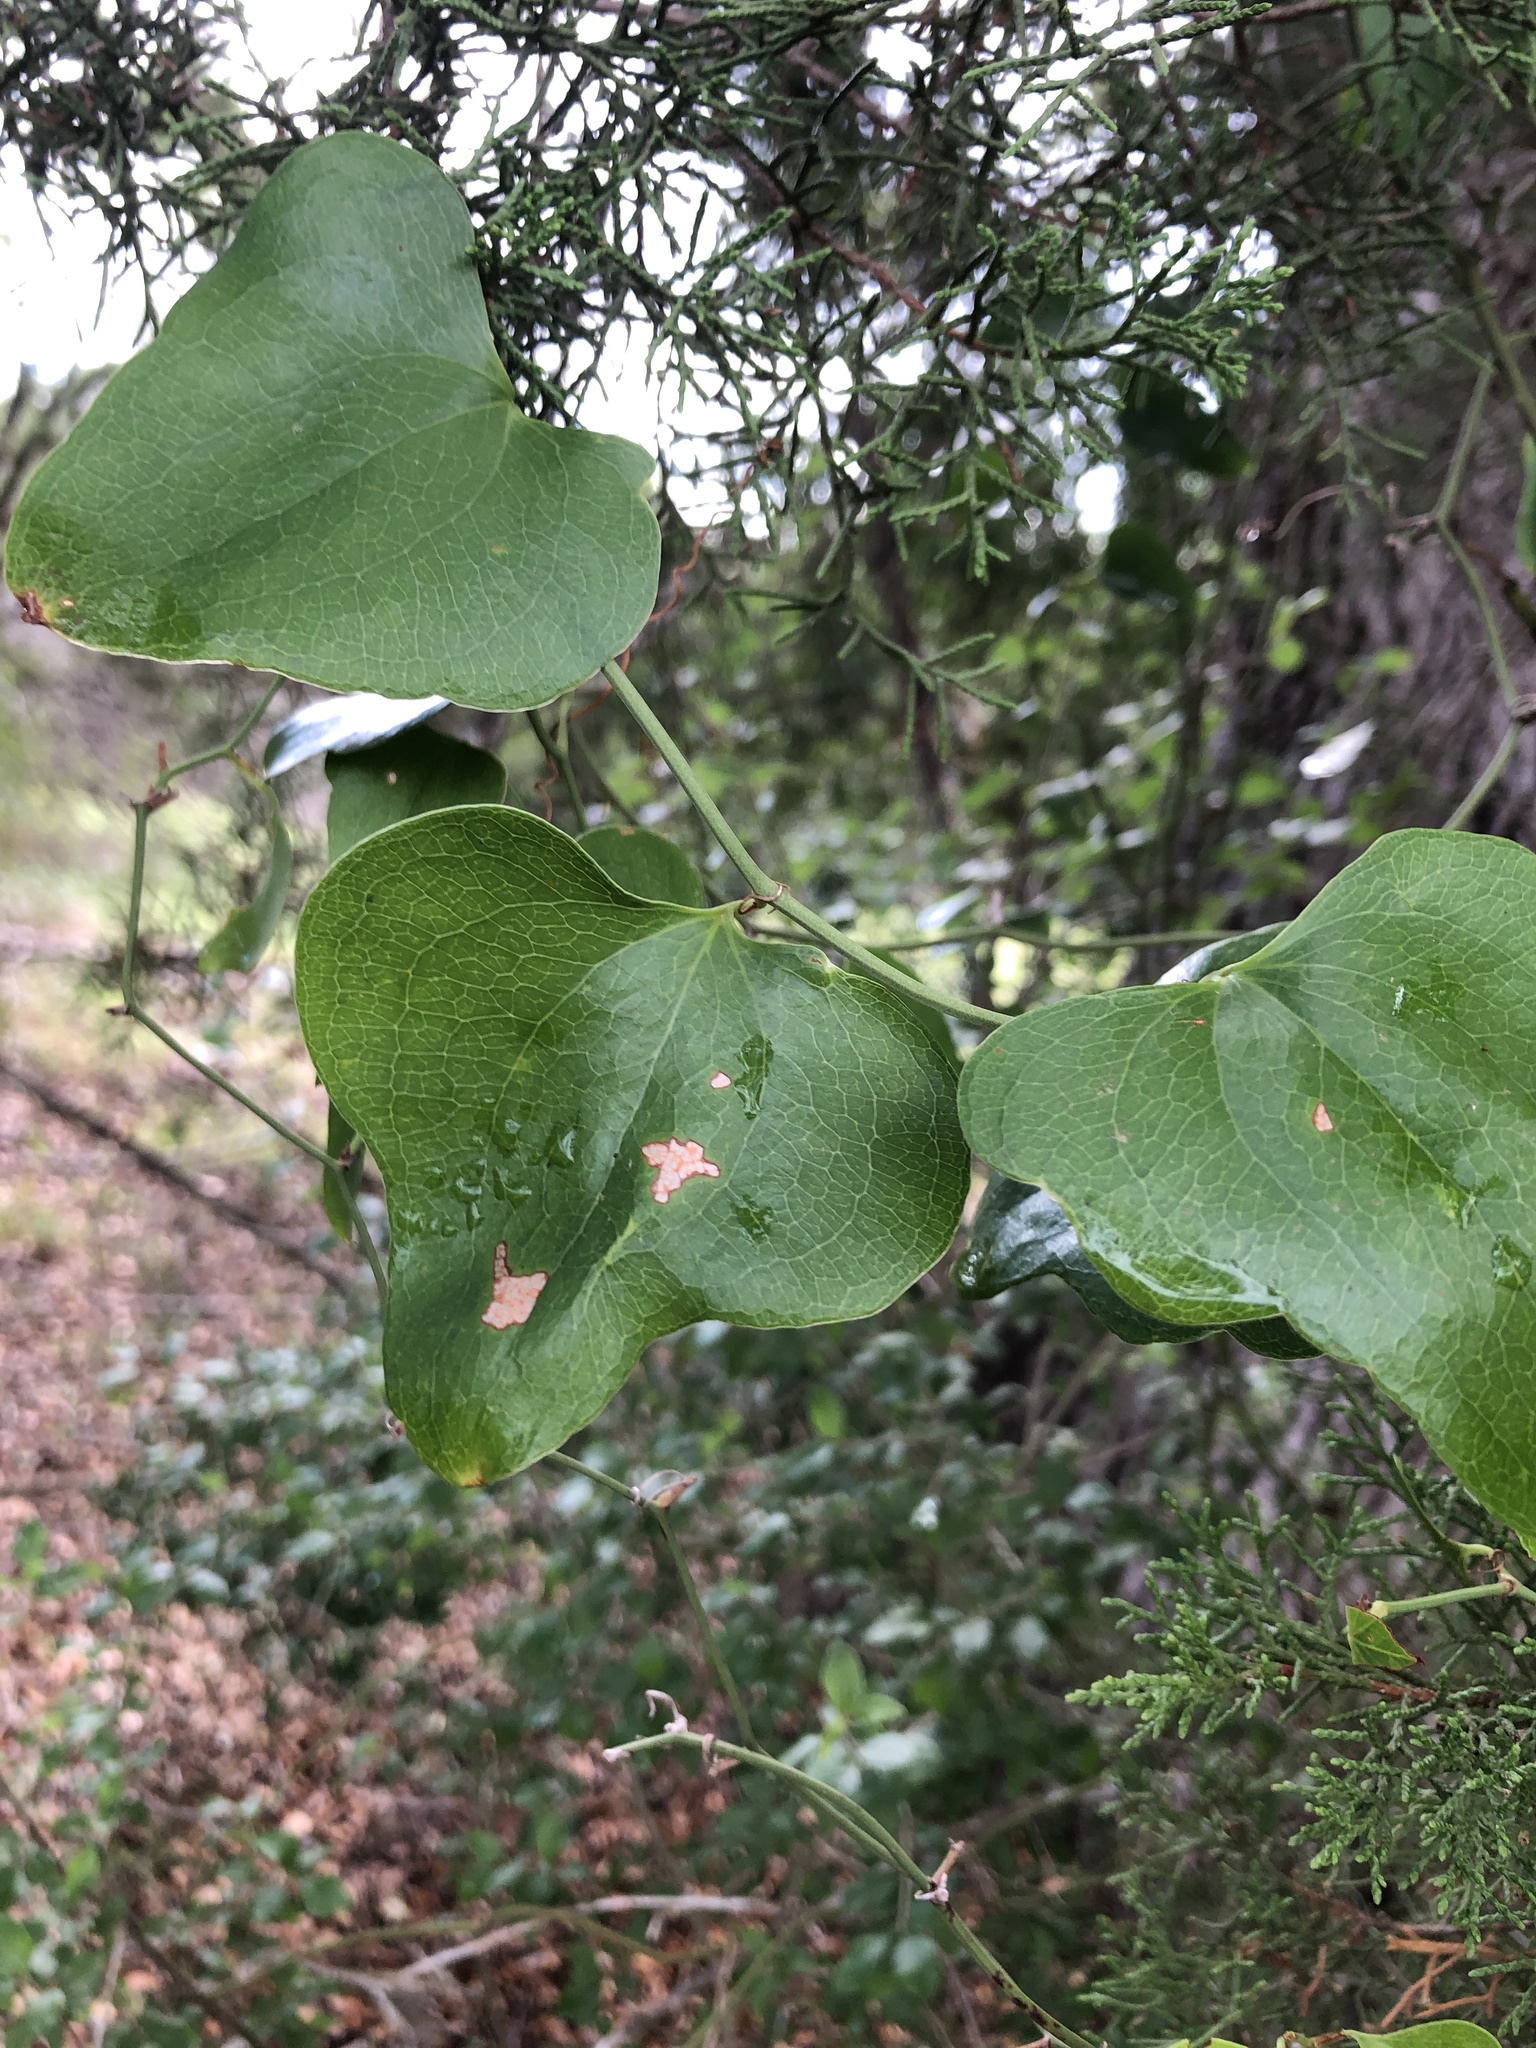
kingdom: Plantae
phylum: Tracheophyta
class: Liliopsida
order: Liliales
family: Smilacaceae
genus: Smilax
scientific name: Smilax bona-nox
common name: Catbrier
